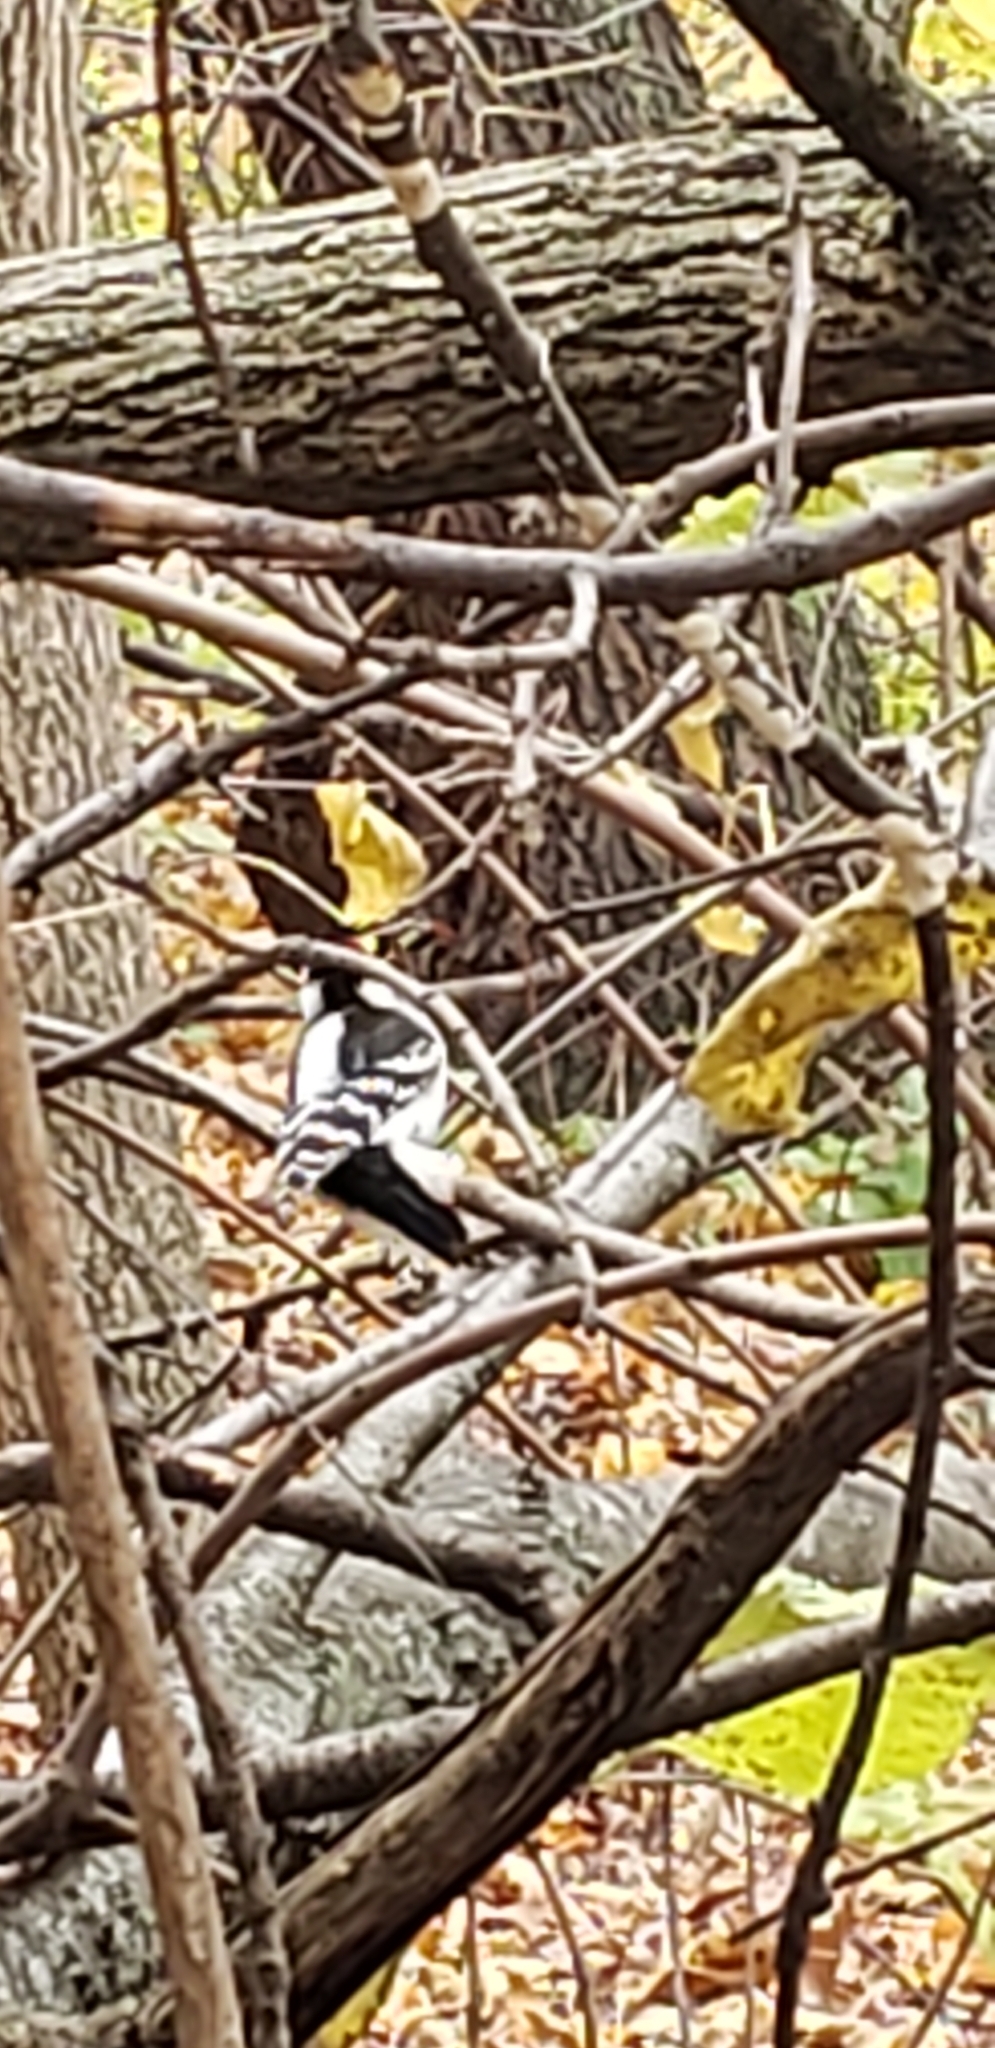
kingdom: Animalia
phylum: Chordata
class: Aves
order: Piciformes
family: Picidae
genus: Dryobates
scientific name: Dryobates pubescens
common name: Downy woodpecker
